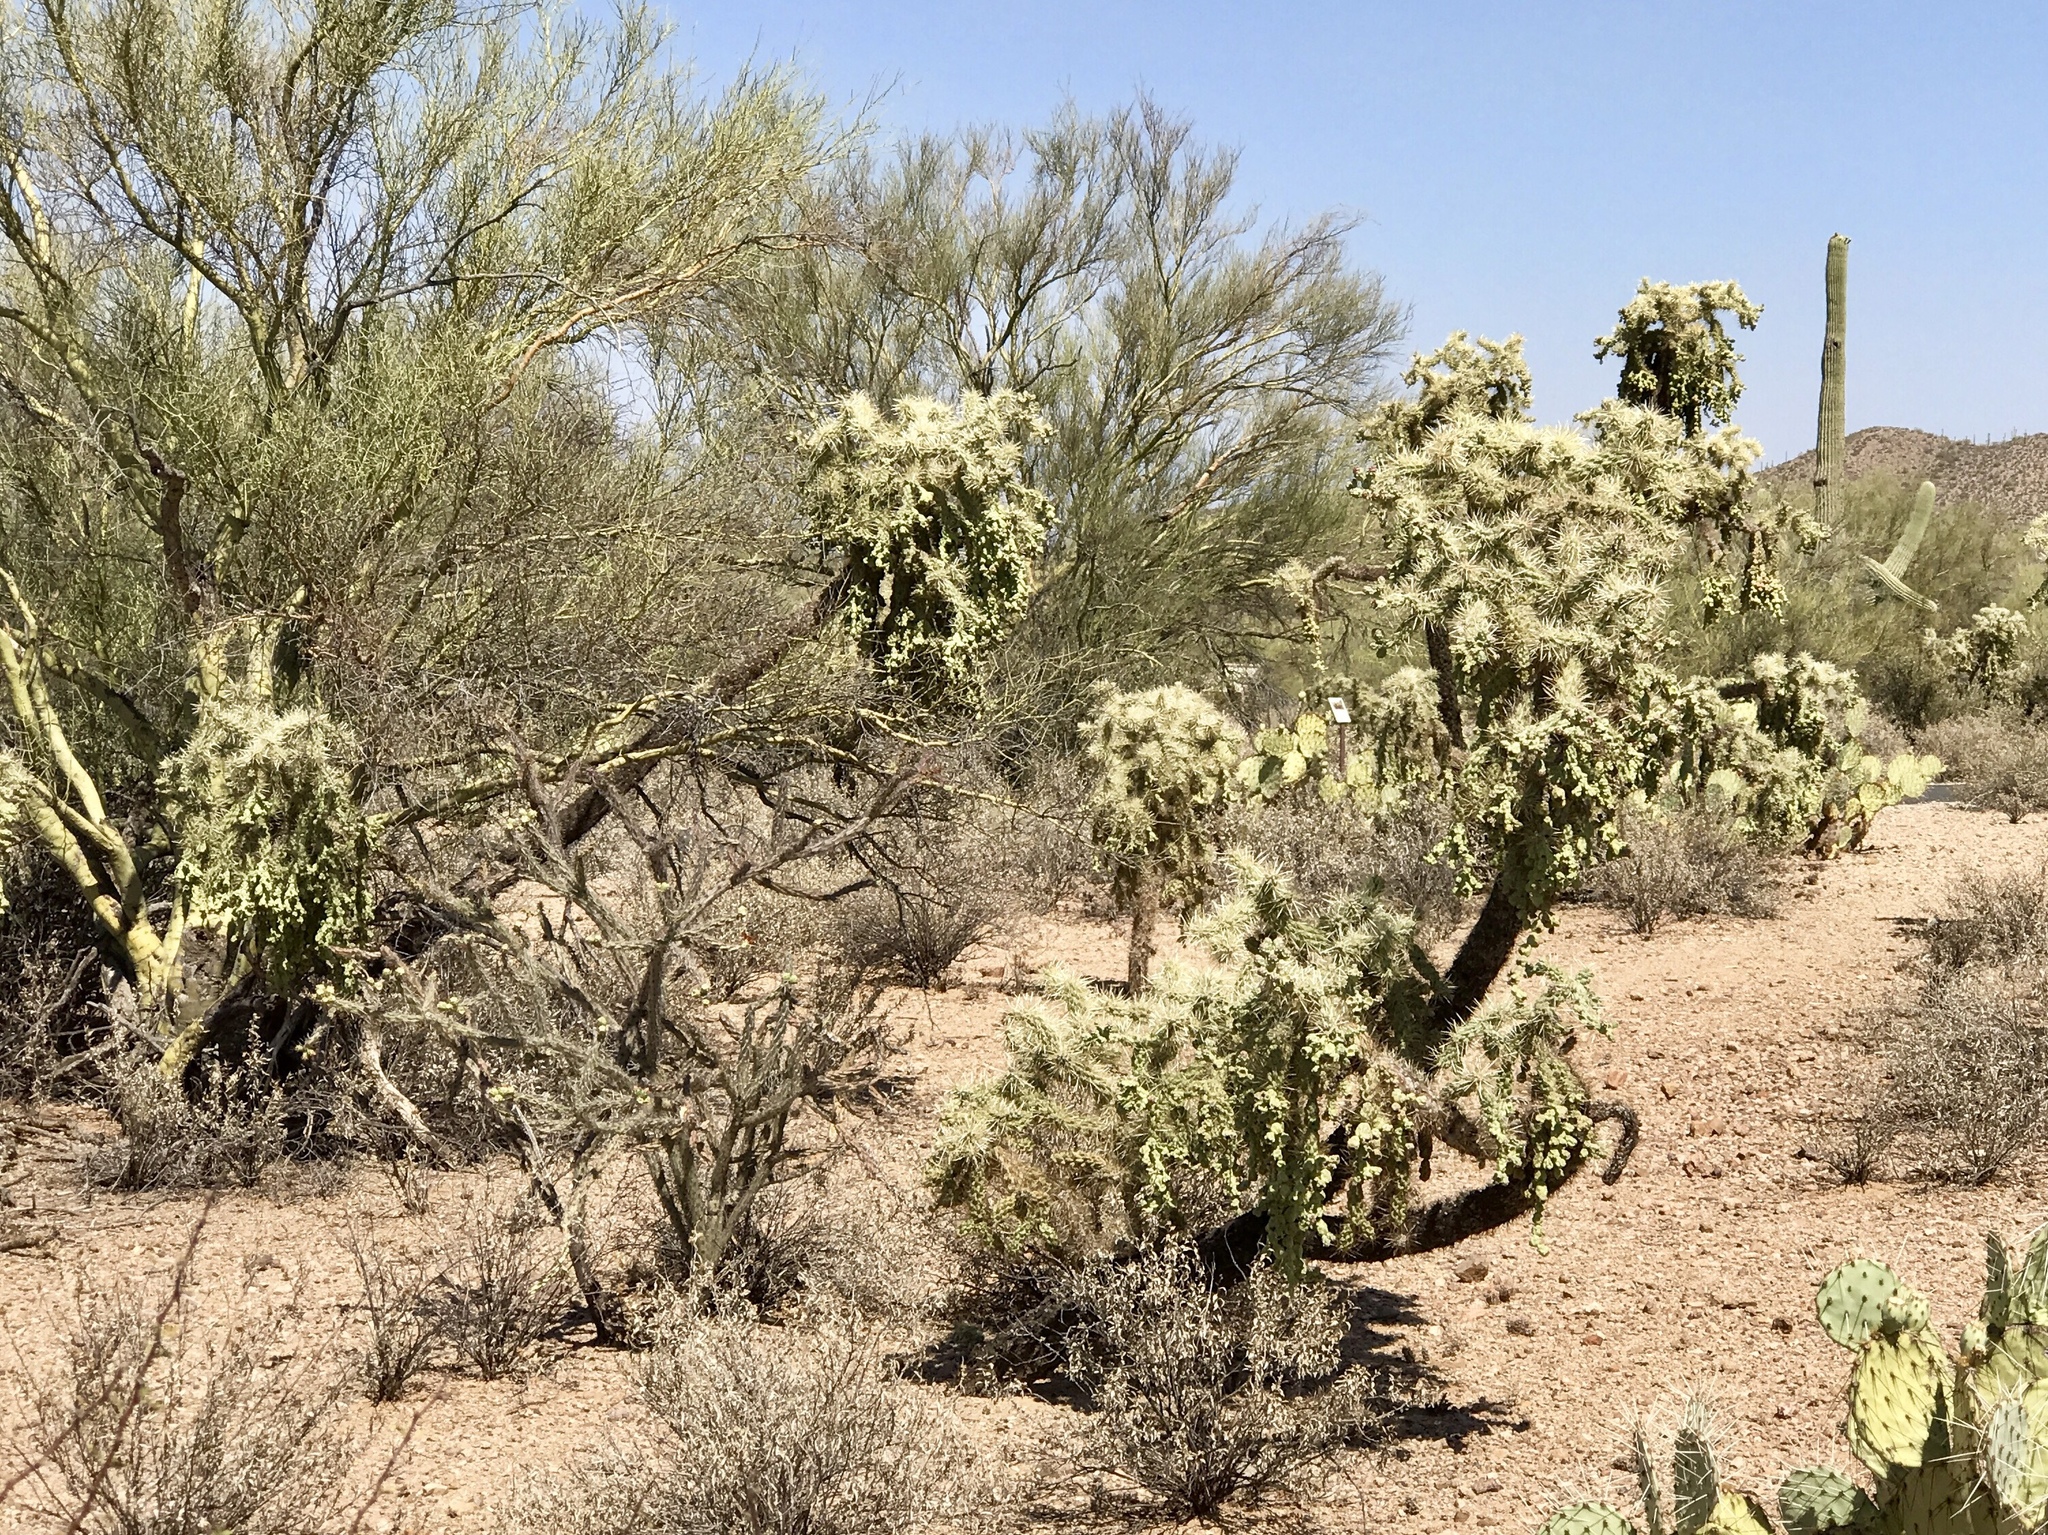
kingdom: Plantae
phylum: Tracheophyta
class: Magnoliopsida
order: Caryophyllales
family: Cactaceae
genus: Cylindropuntia
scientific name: Cylindropuntia fulgida
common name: Jumping cholla
